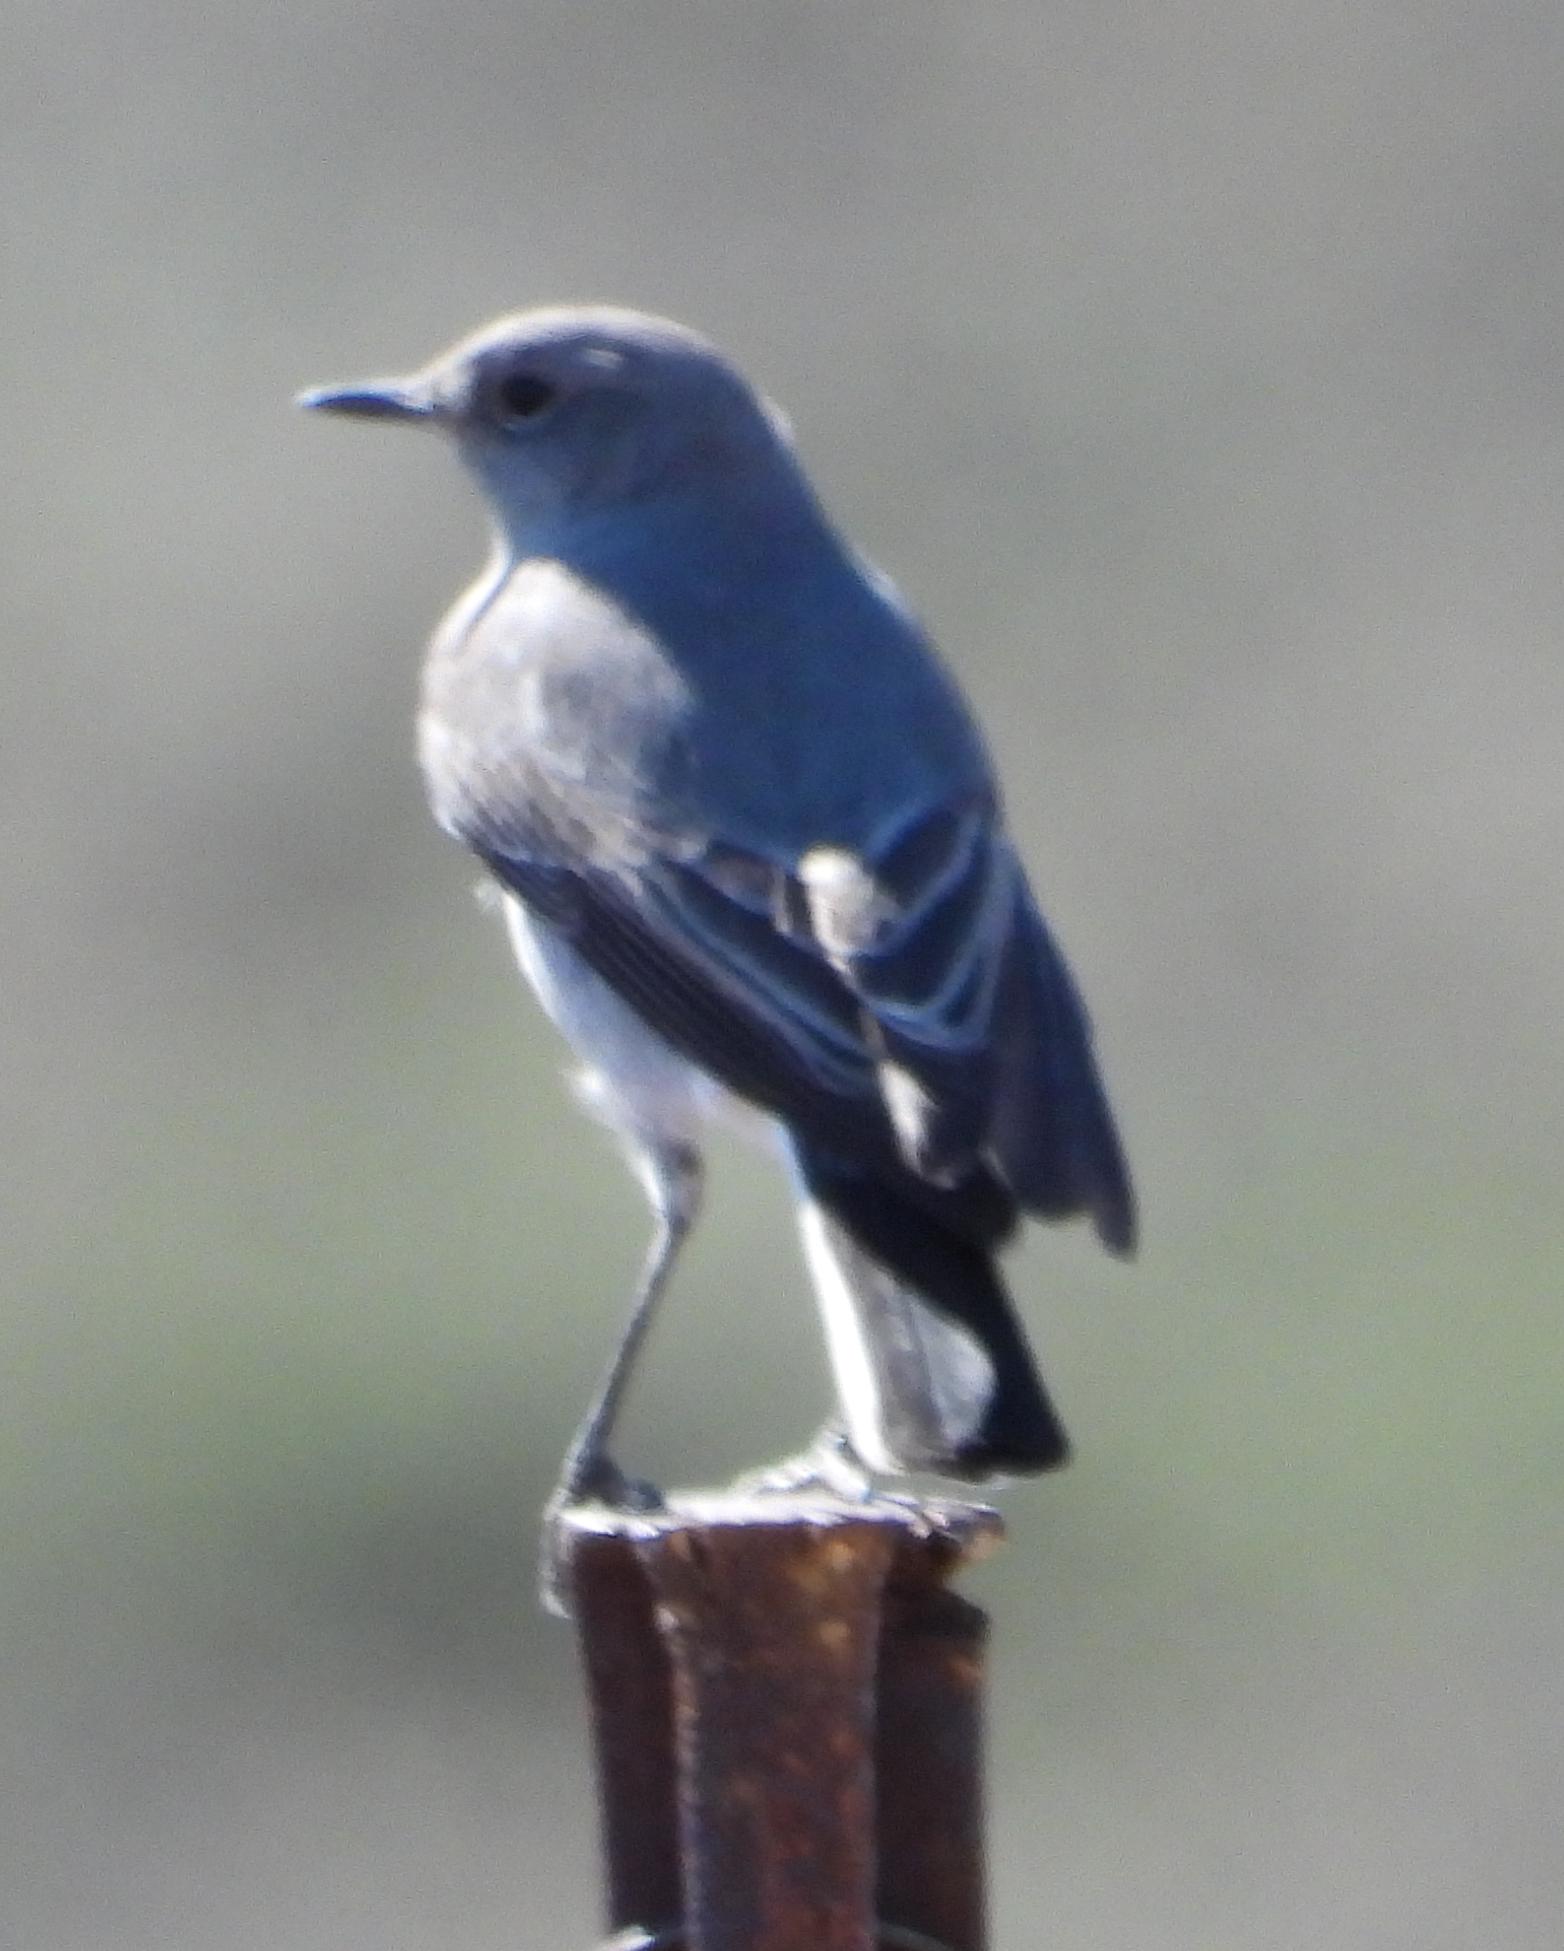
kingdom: Animalia
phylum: Chordata
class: Aves
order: Passeriformes
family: Muscicapidae
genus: Emarginata
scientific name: Emarginata schlegelii
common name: Karoo chat
